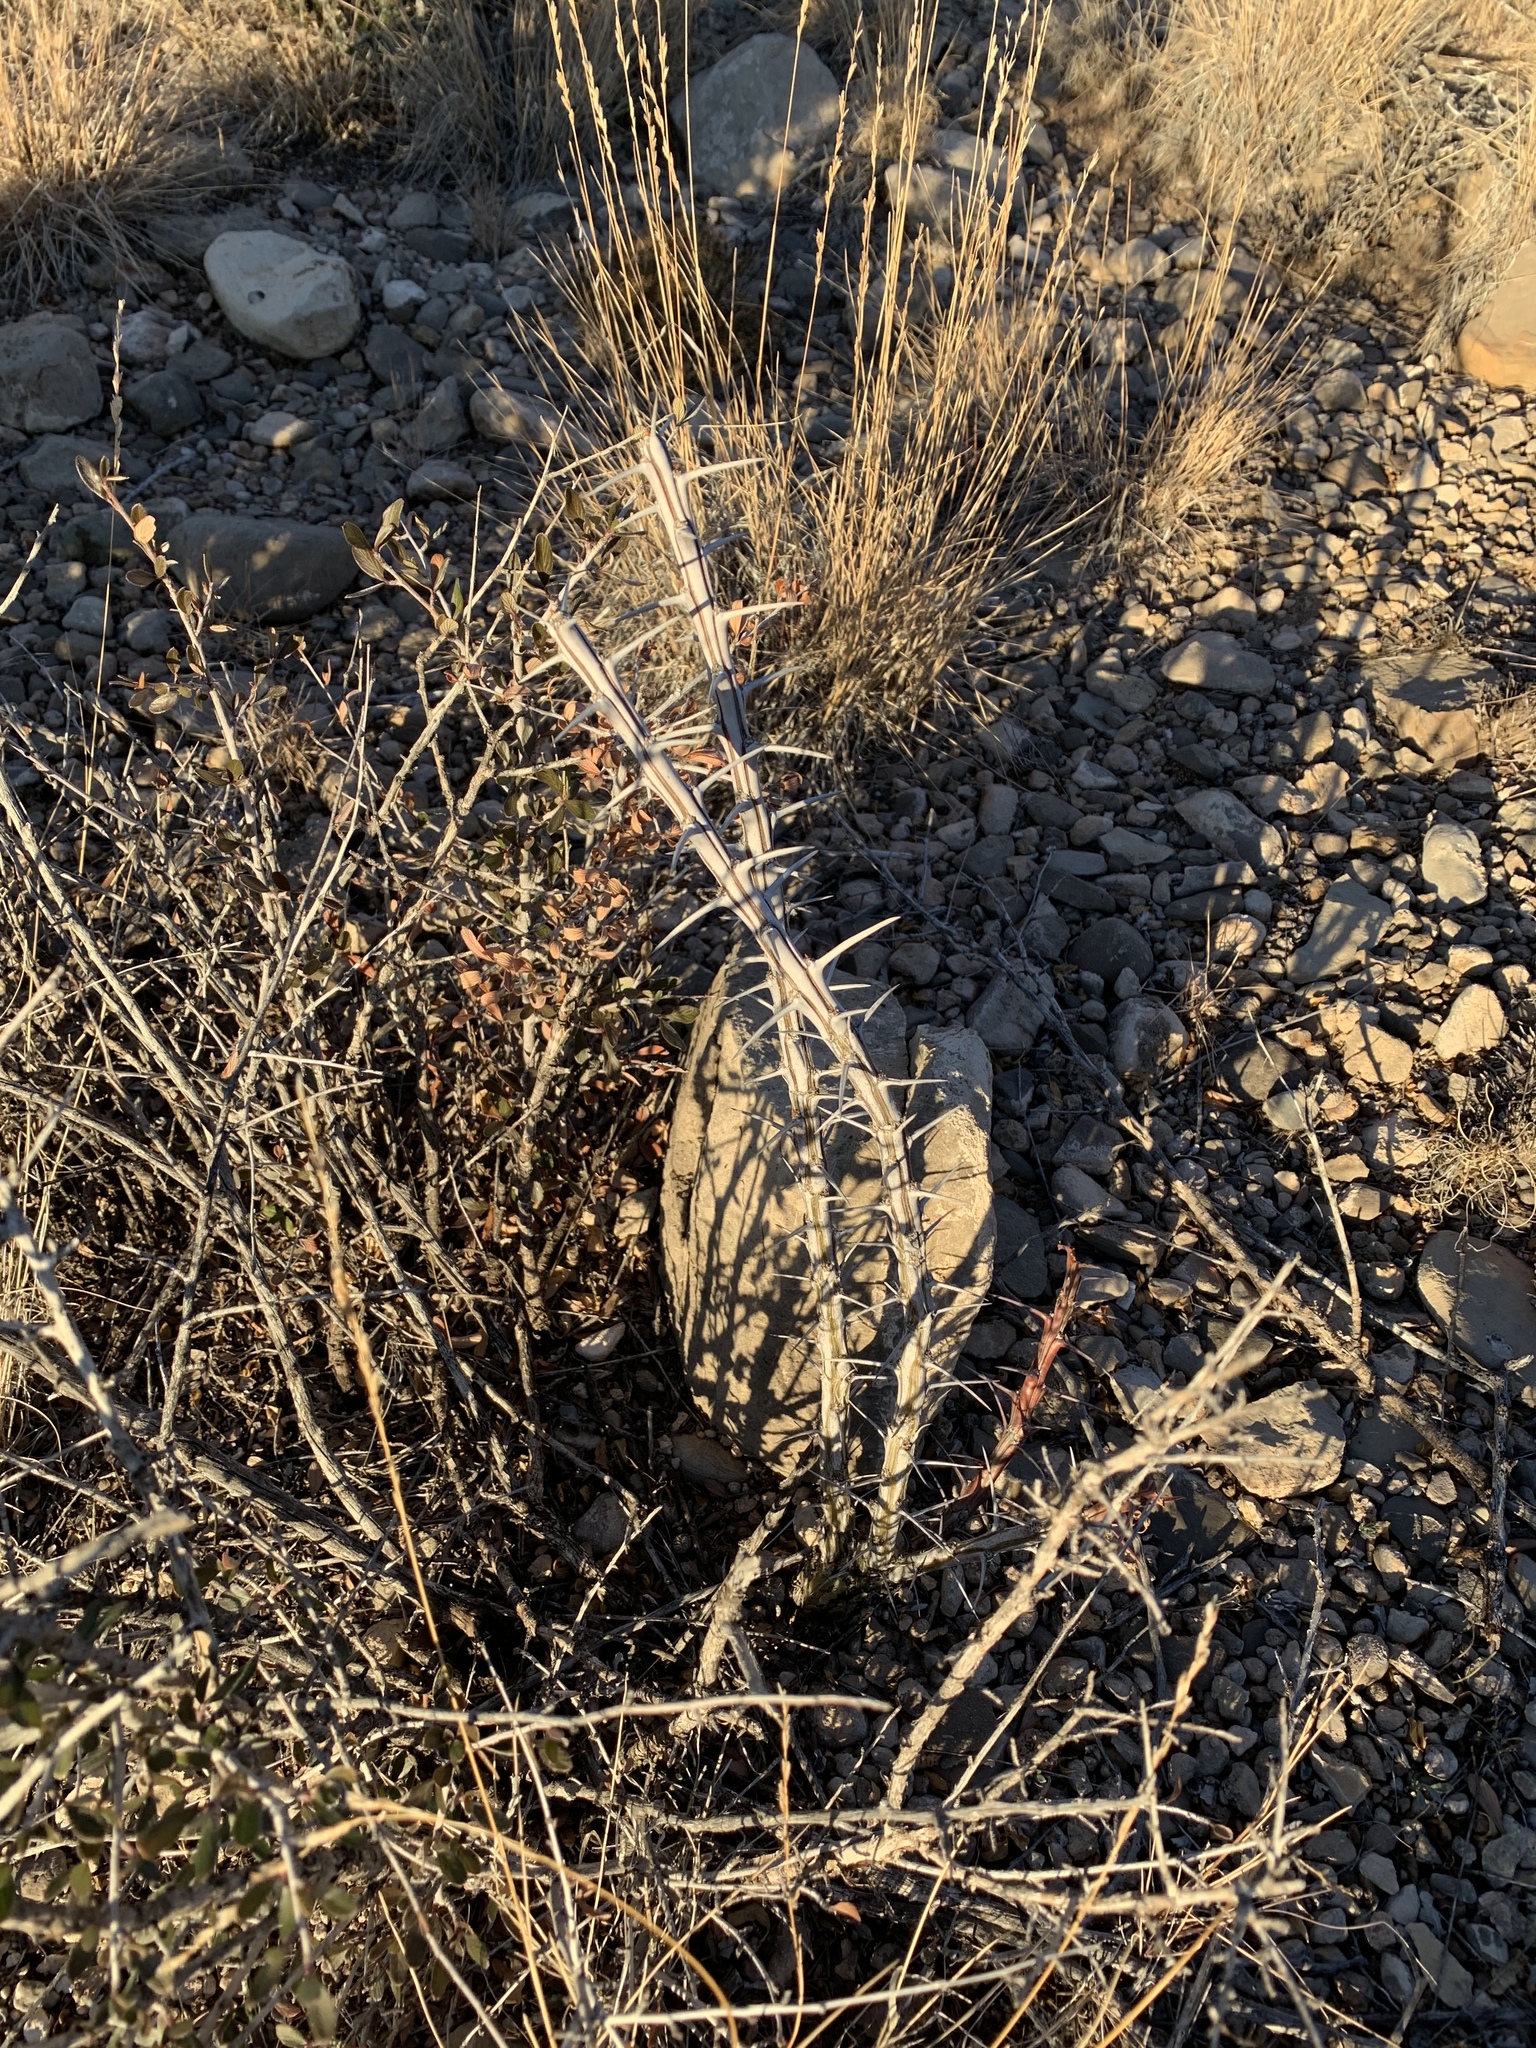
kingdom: Plantae
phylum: Tracheophyta
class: Magnoliopsida
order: Ericales
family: Fouquieriaceae
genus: Fouquieria
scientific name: Fouquieria splendens
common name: Vine-cactus
